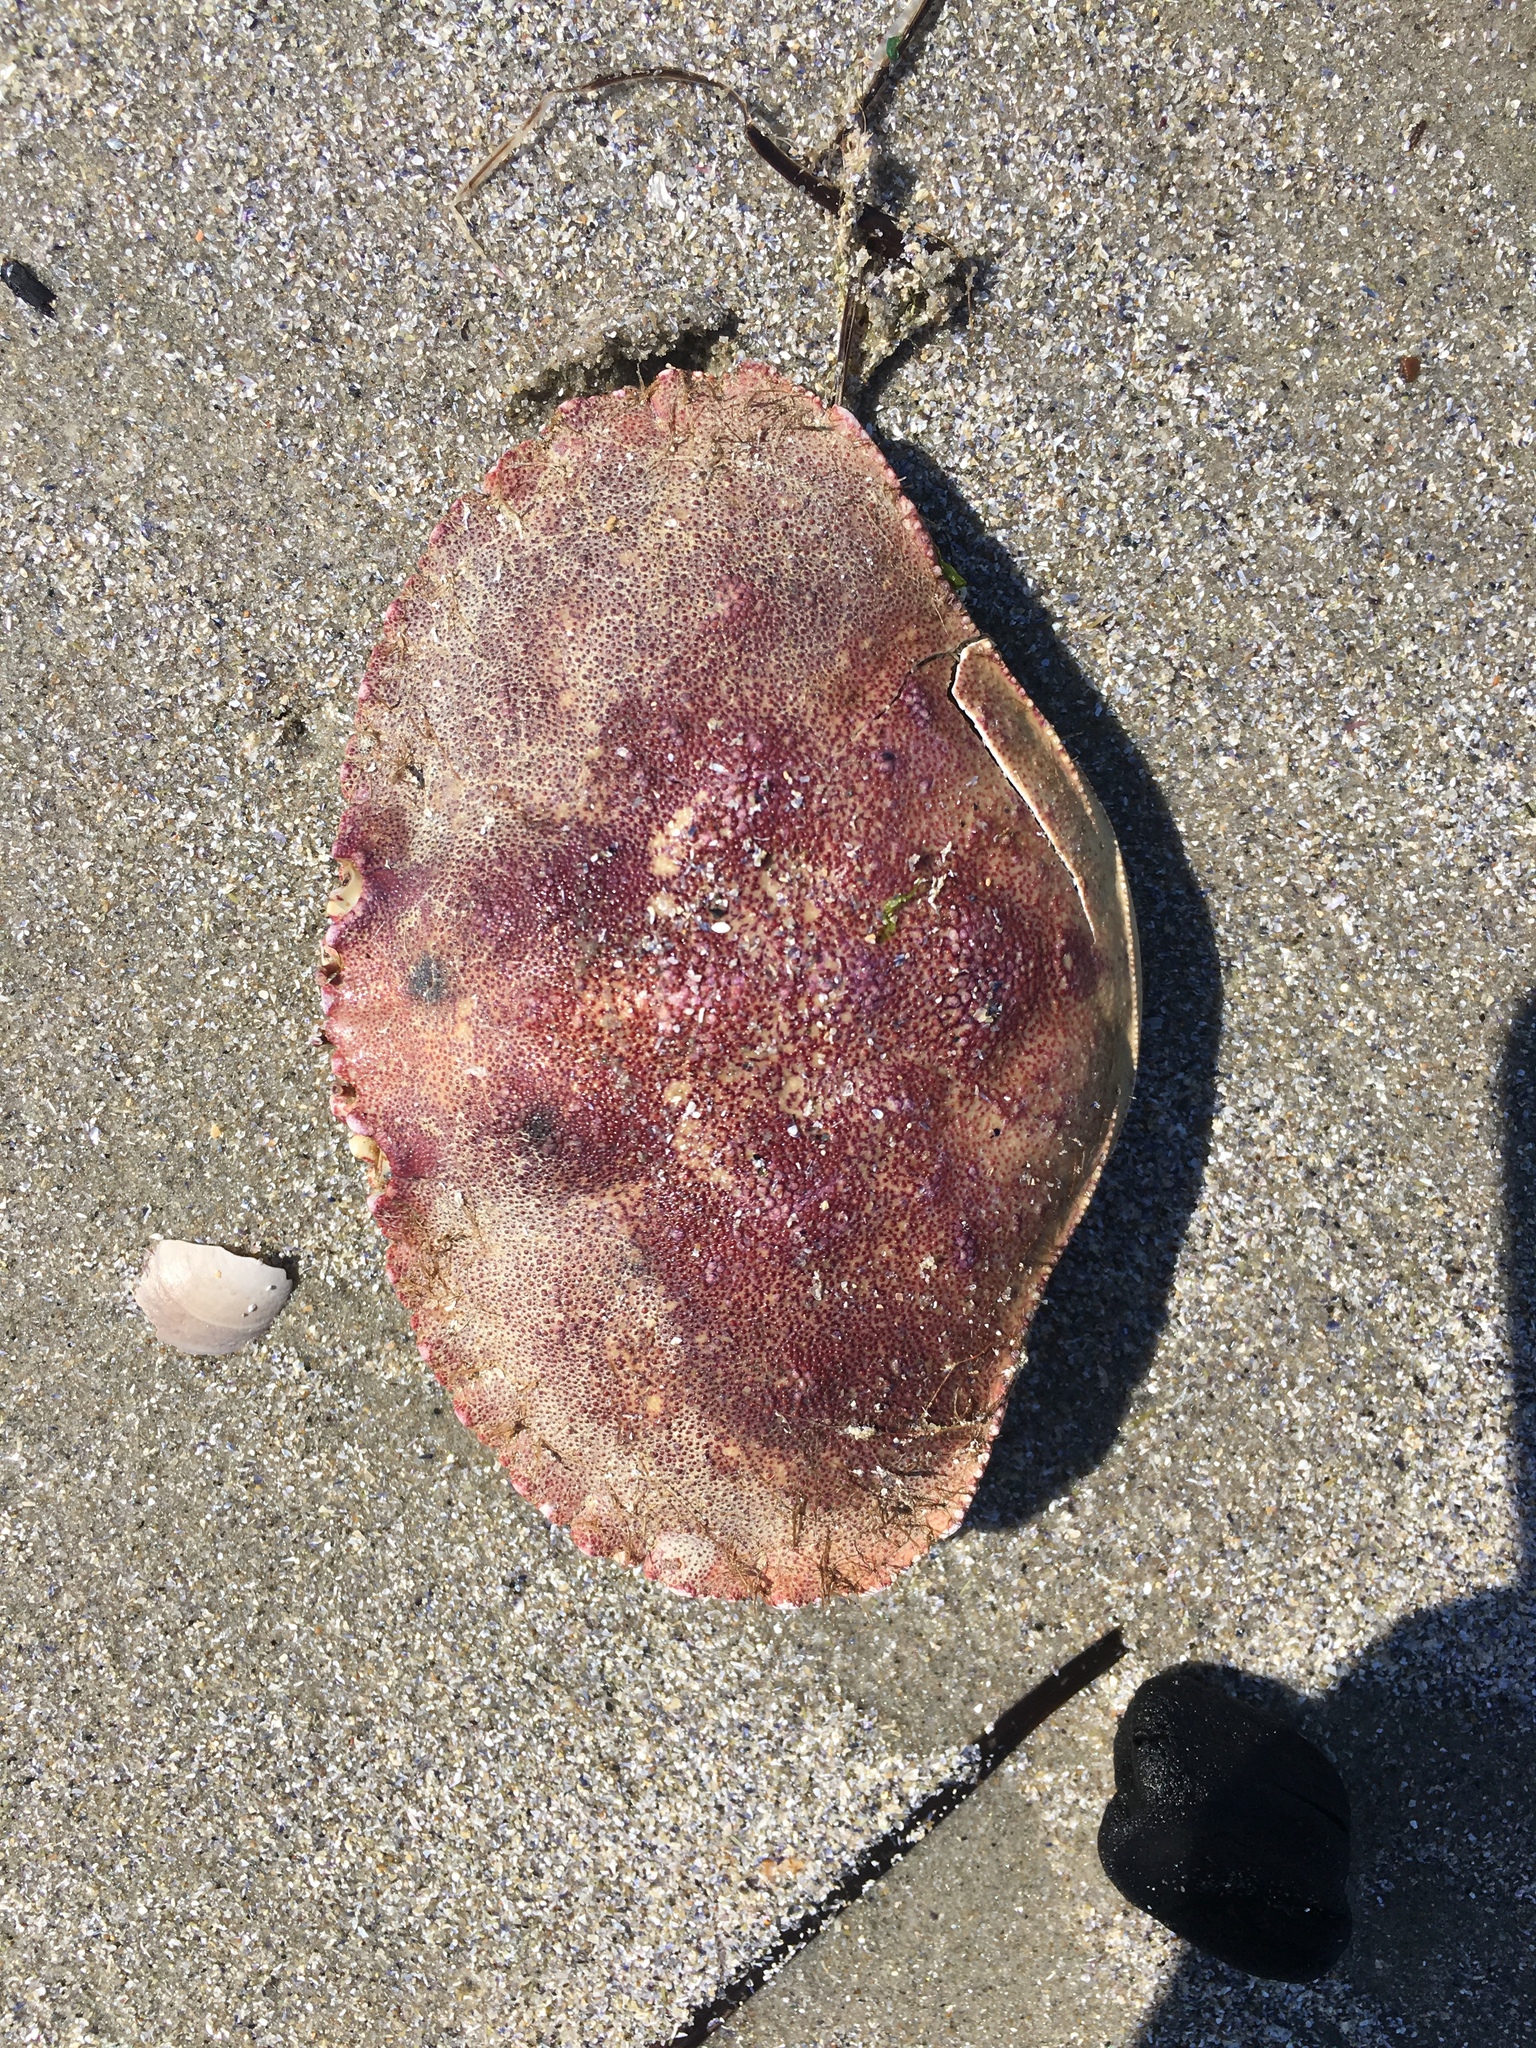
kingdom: Animalia
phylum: Arthropoda
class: Malacostraca
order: Decapoda
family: Cancridae
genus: Cancer
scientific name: Cancer borealis
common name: Jonah crab
